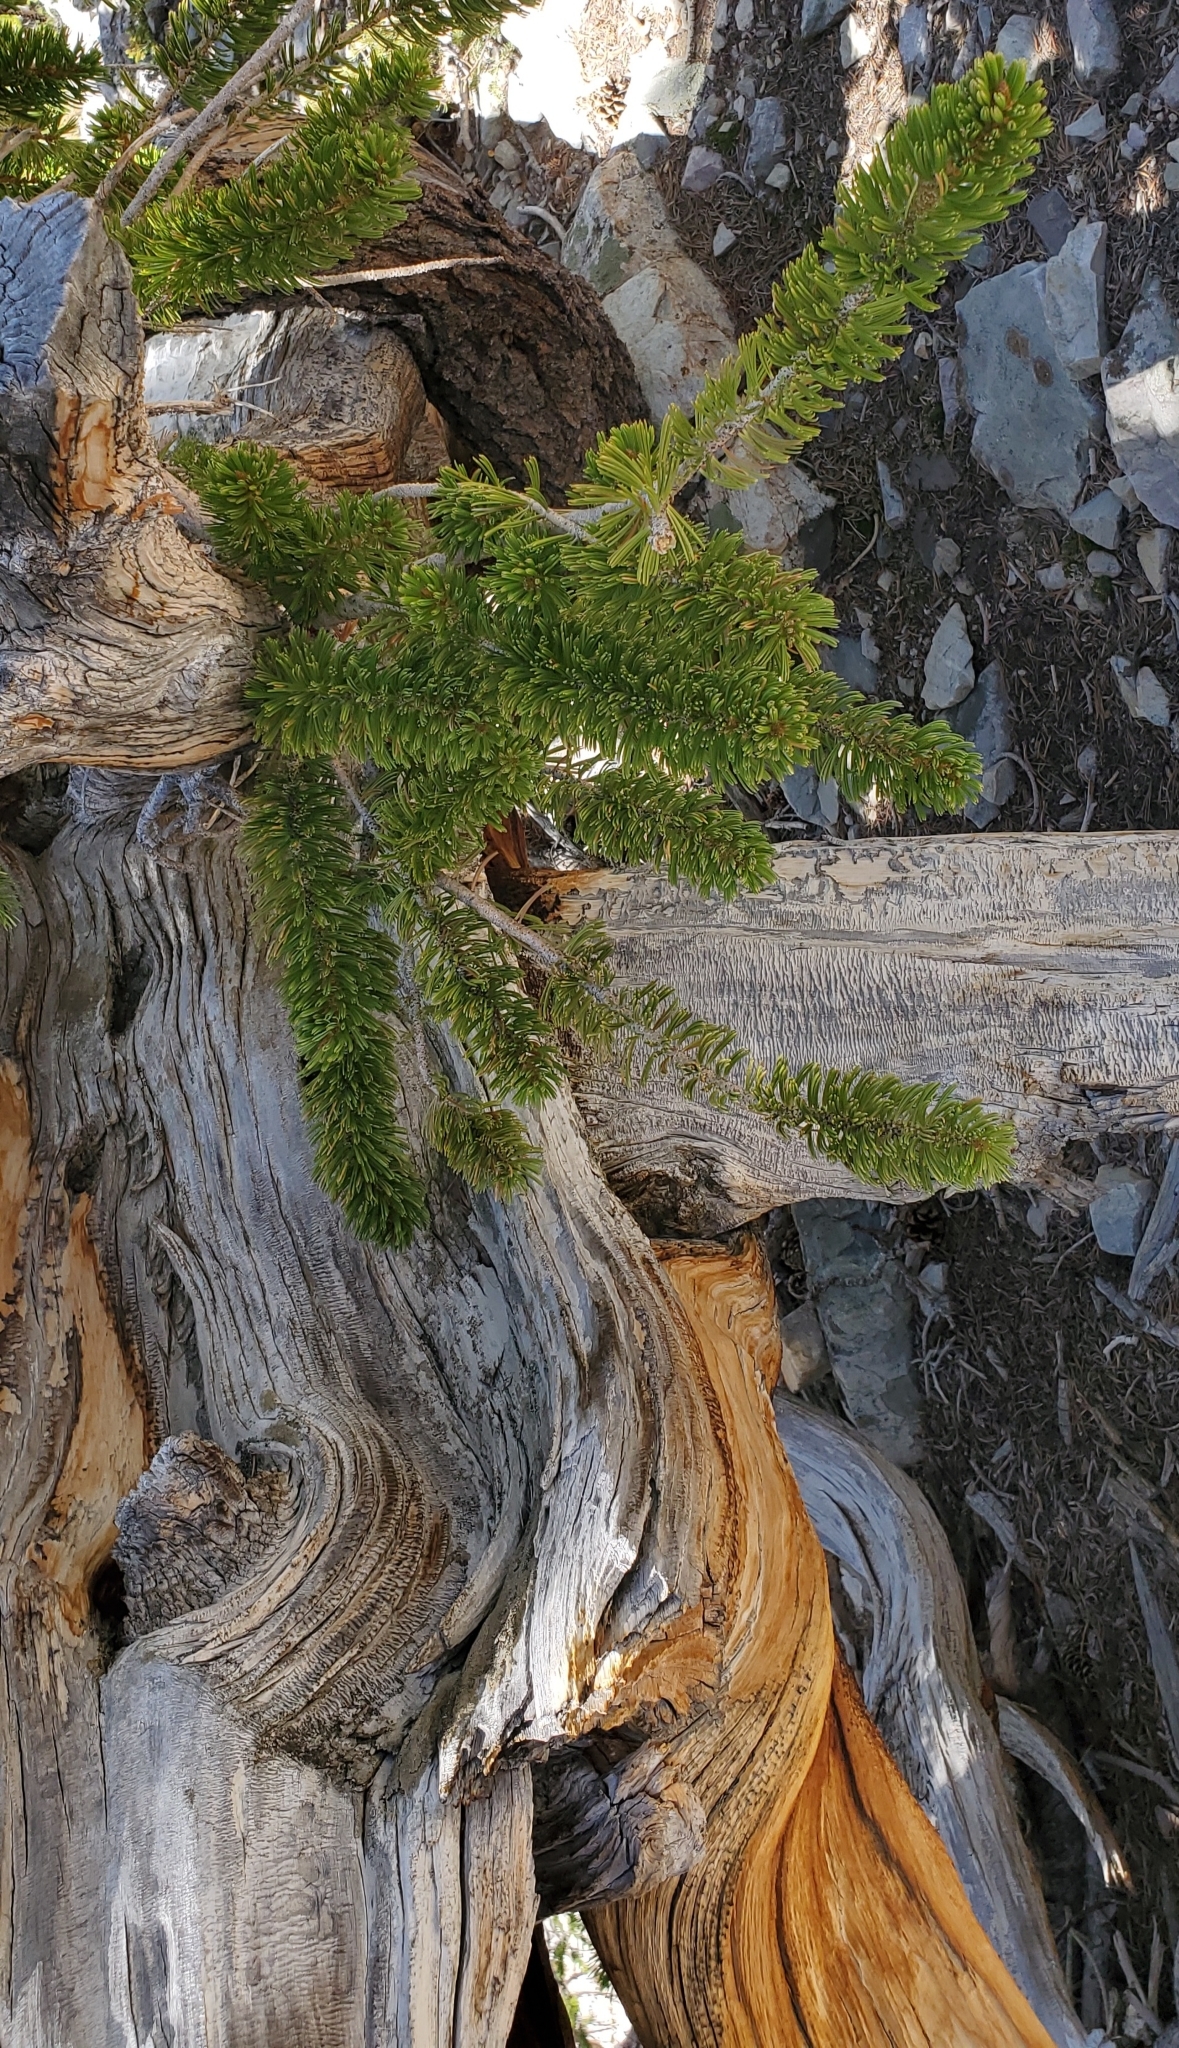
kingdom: Plantae
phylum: Tracheophyta
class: Pinopsida
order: Pinales
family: Pinaceae
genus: Pinus
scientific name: Pinus longaeva
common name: Intermountain bristlecone pine
